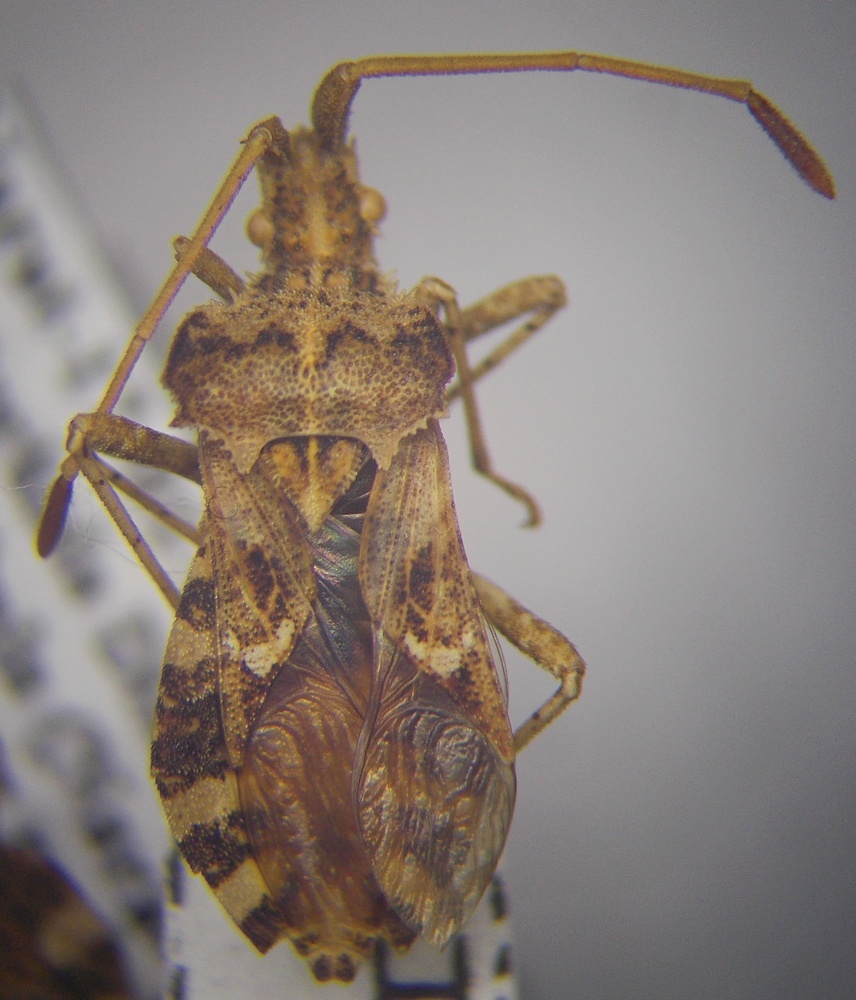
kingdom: Animalia
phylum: Arthropoda
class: Insecta
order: Hemiptera
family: Coreidae
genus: Centrocoris
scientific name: Centrocoris spiniger
